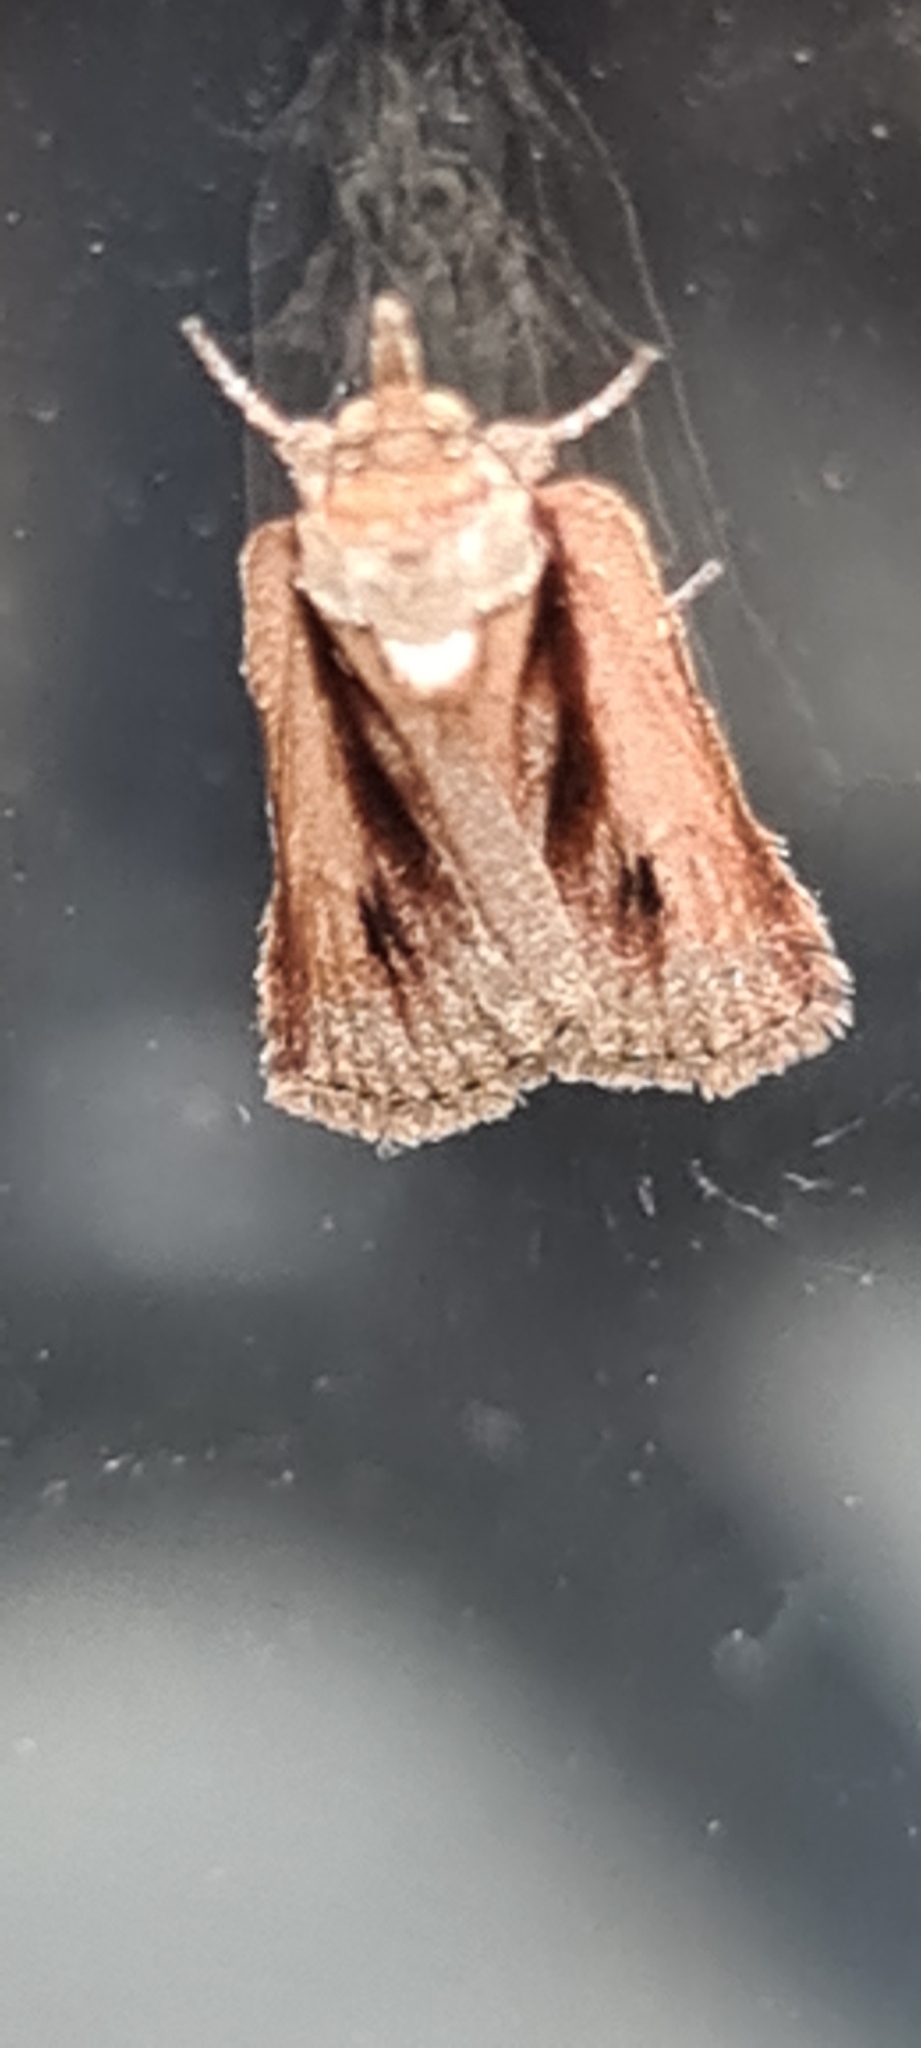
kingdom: Animalia
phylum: Arthropoda
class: Insecta
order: Lepidoptera
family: Nolidae
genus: Nycteola
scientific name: Nycteola revayana
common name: Oak nycteoline
